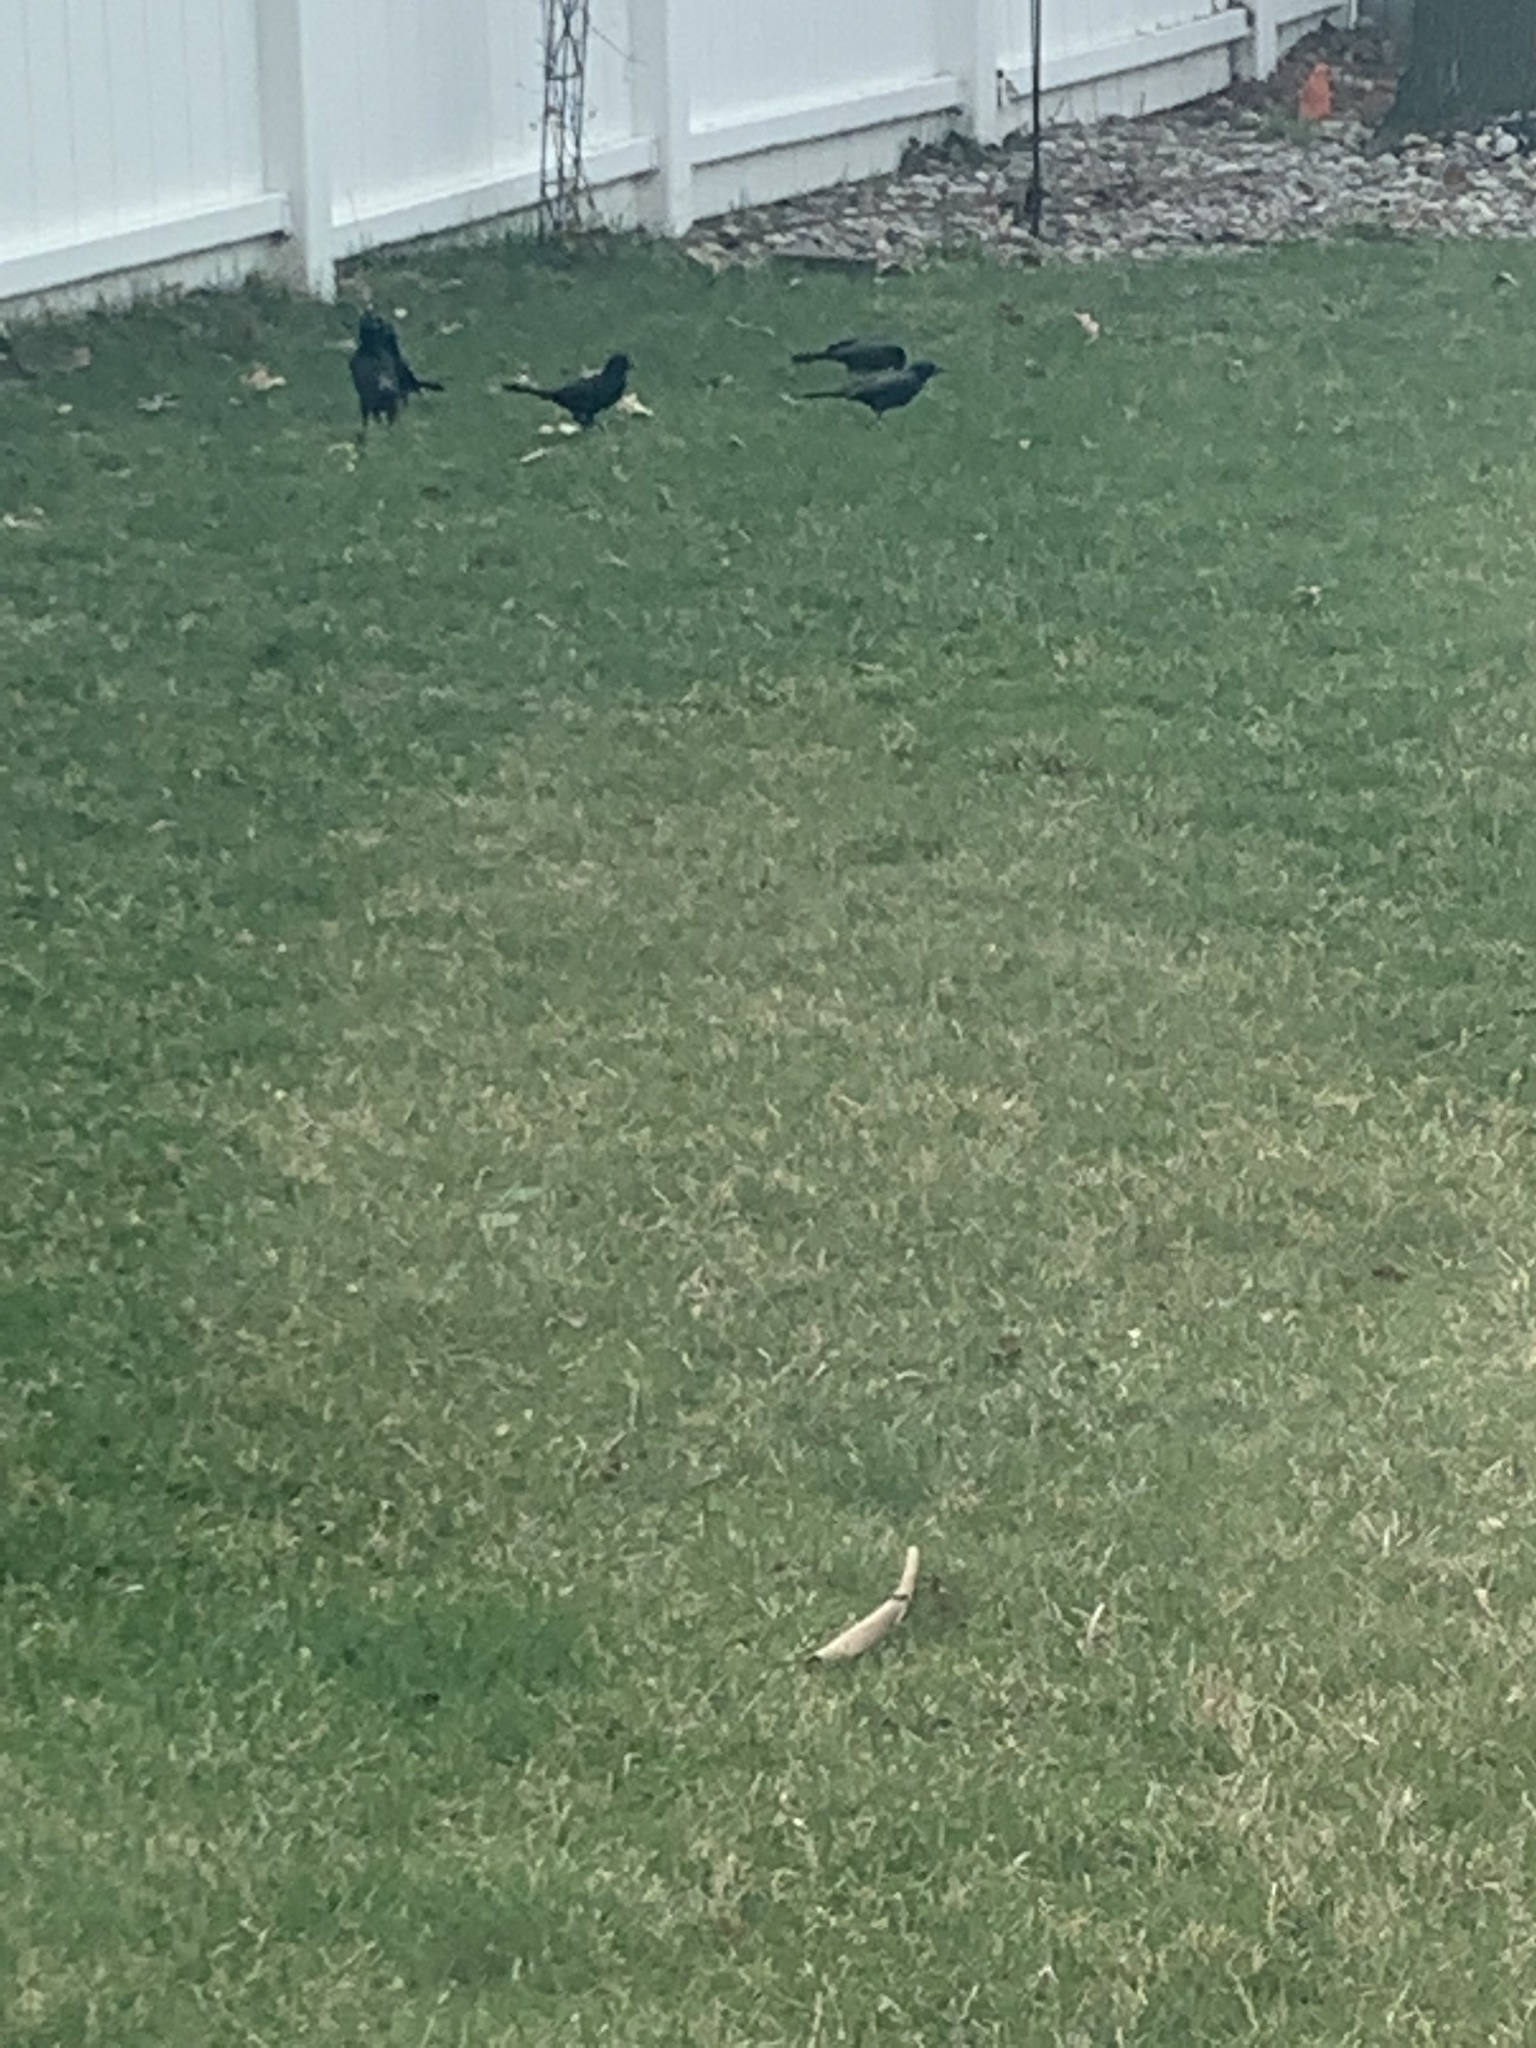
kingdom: Animalia
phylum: Chordata
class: Aves
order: Passeriformes
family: Icteridae
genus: Quiscalus
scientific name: Quiscalus quiscula
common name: Common grackle
